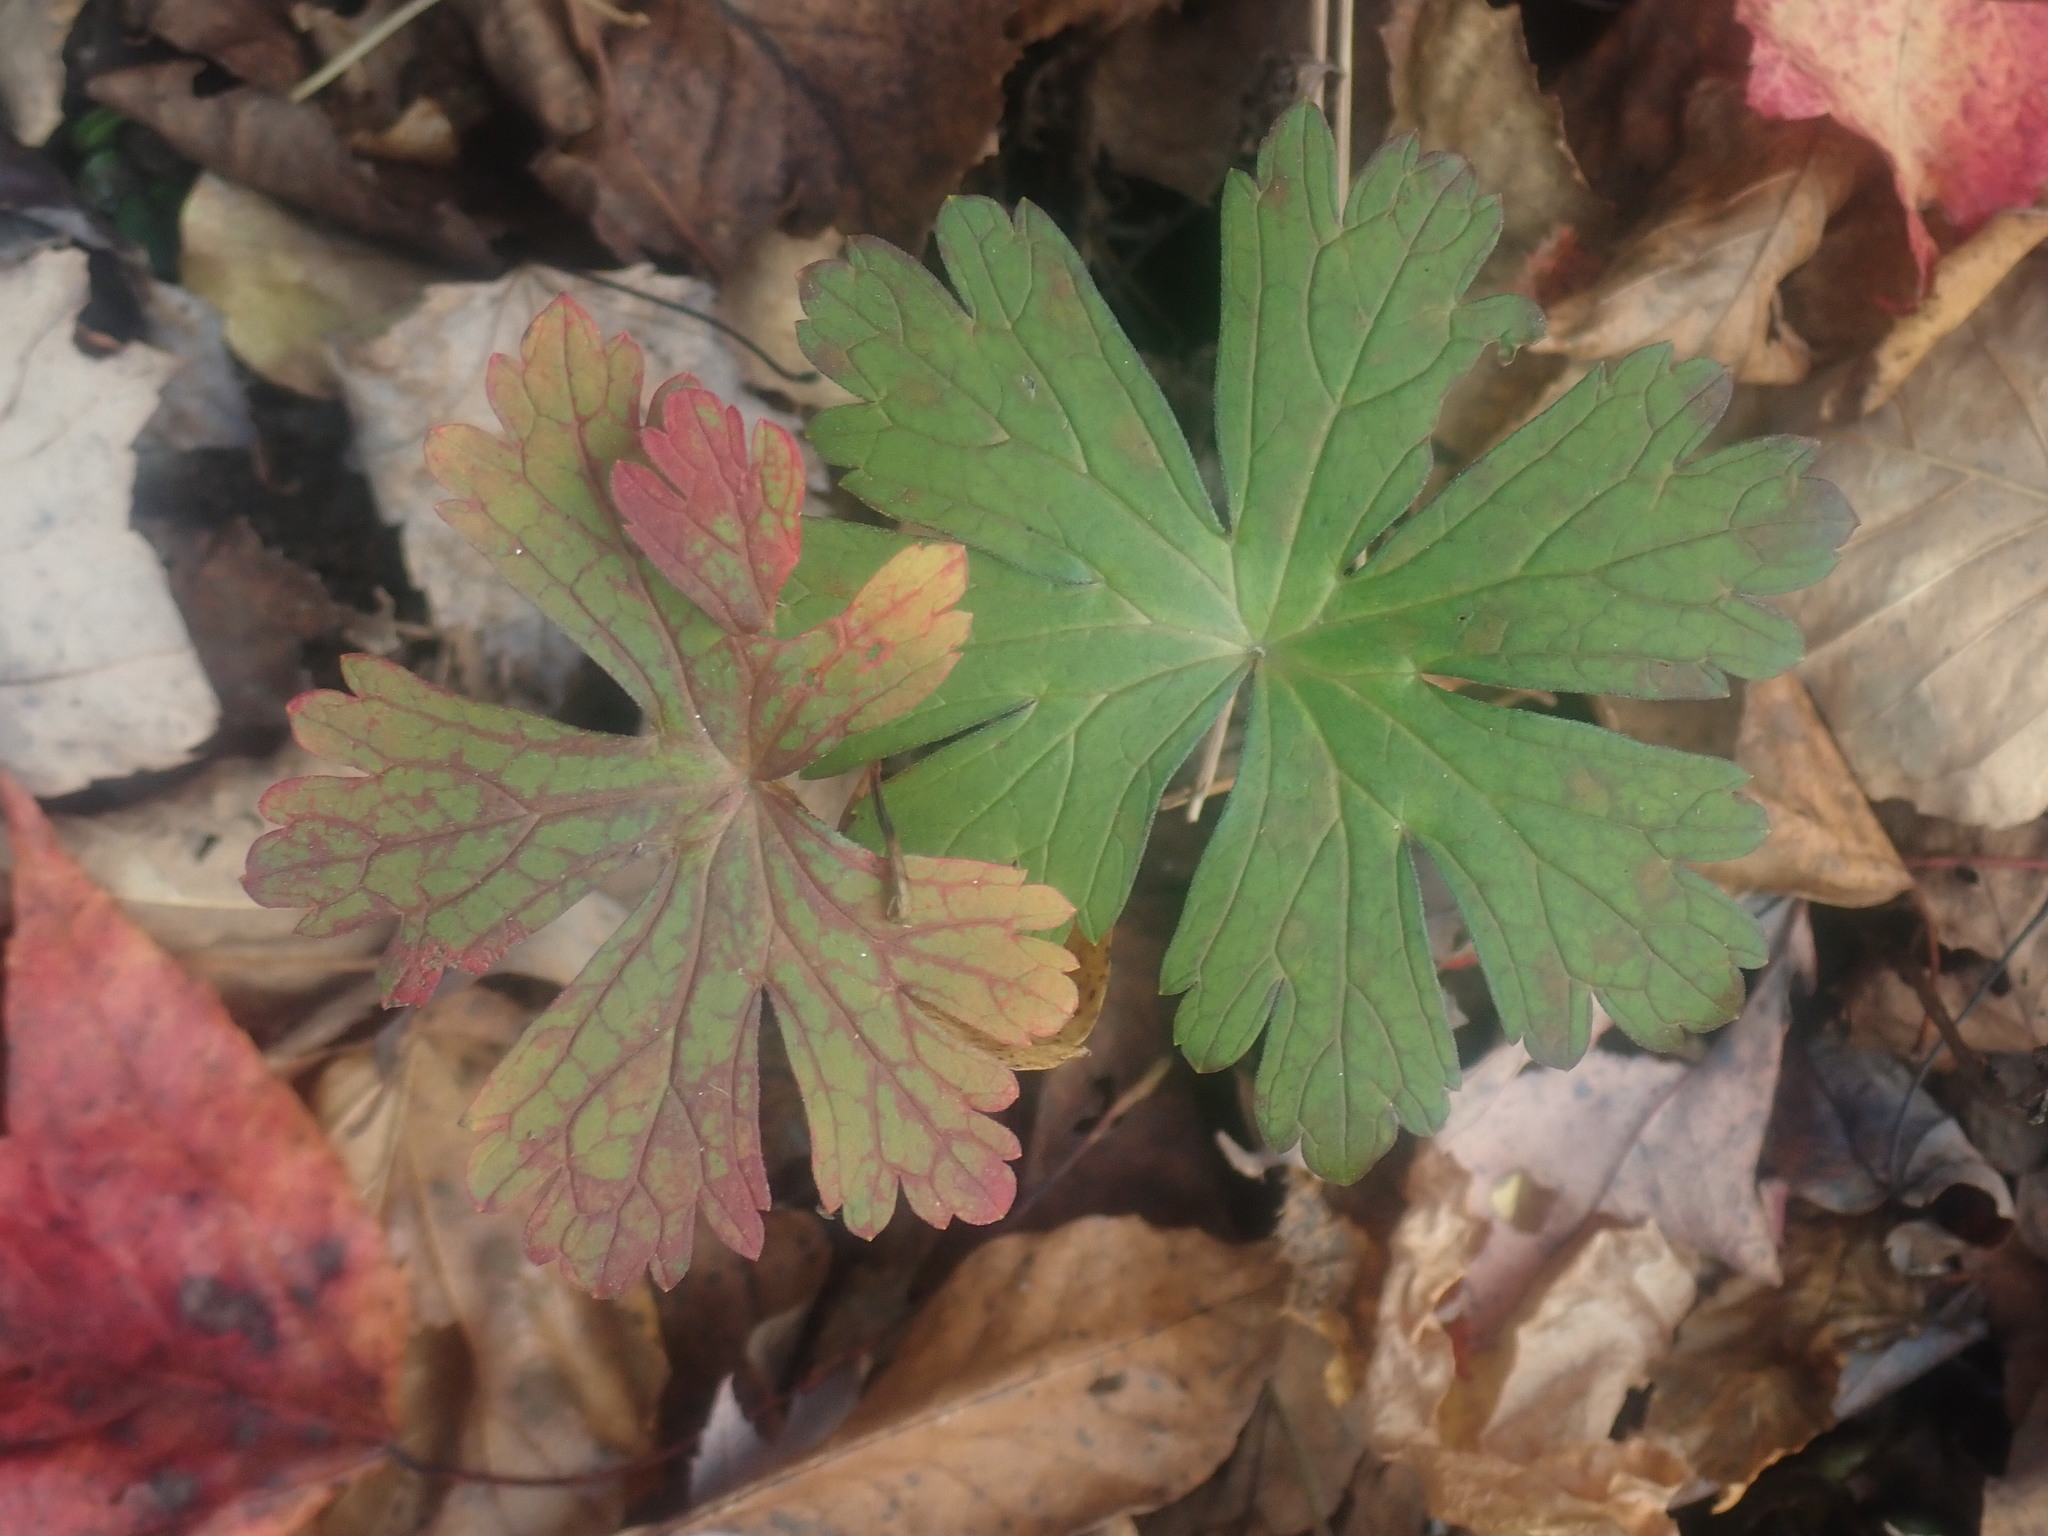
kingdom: Plantae
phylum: Tracheophyta
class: Magnoliopsida
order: Geraniales
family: Geraniaceae
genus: Geranium
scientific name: Geranium maculatum
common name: Spotted geranium
